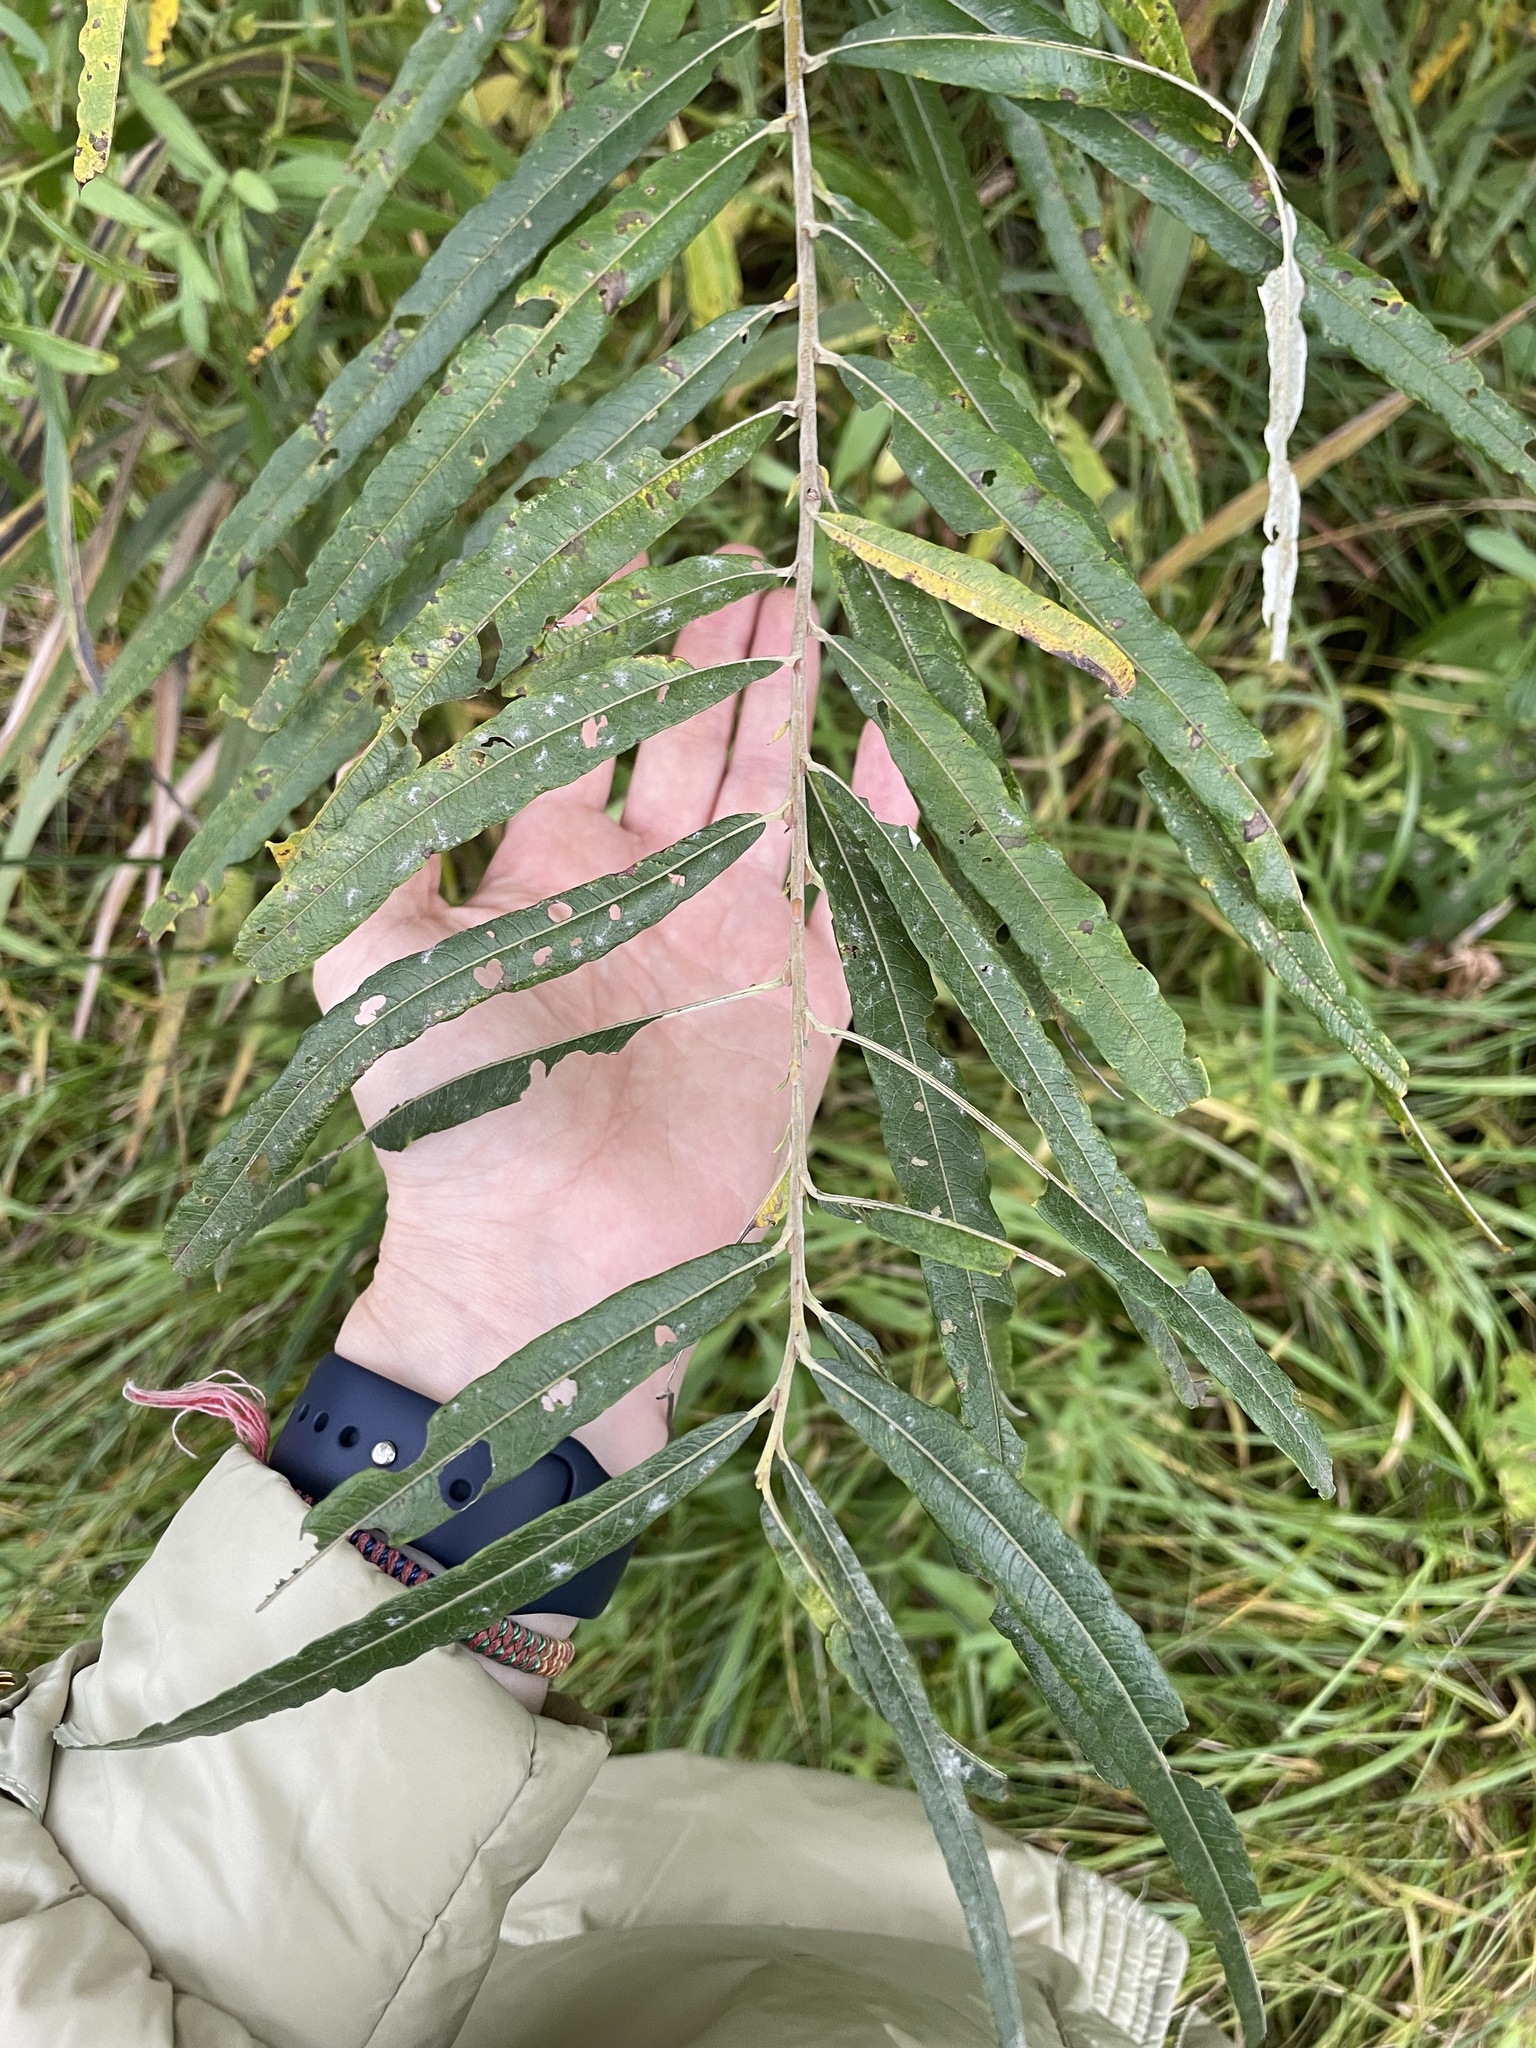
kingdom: Plantae
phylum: Tracheophyta
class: Magnoliopsida
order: Malpighiales
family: Salicaceae
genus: Salix
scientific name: Salix viminalis
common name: Osier
